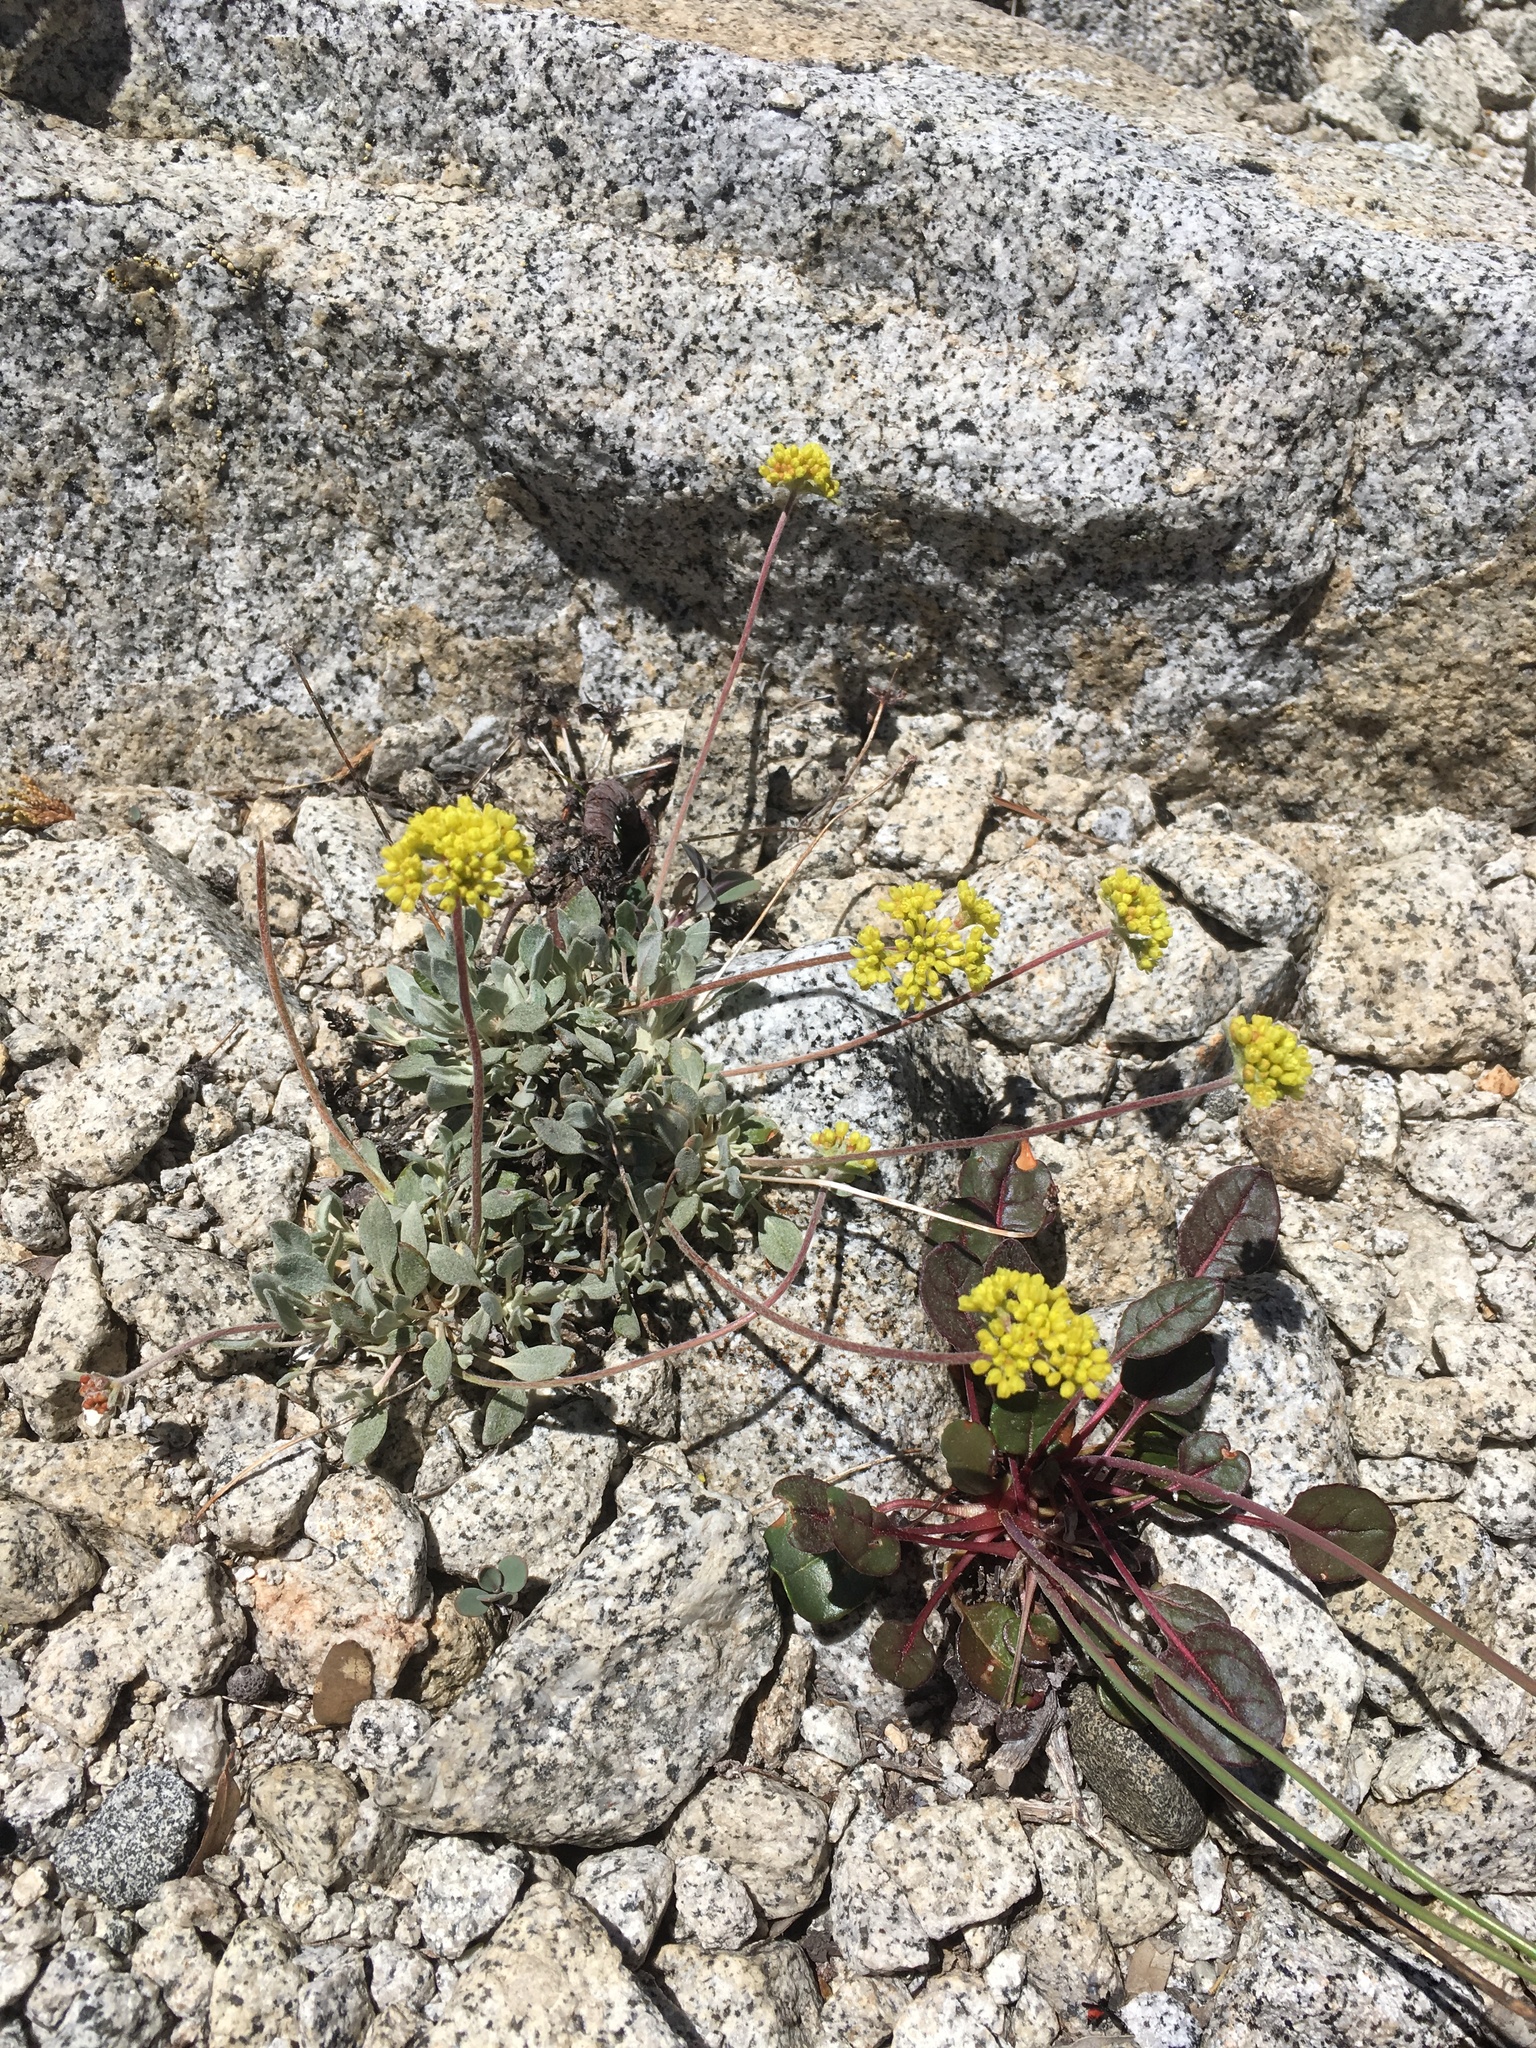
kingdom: Plantae
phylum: Tracheophyta
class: Magnoliopsida
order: Caryophyllales
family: Polygonaceae
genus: Eriogonum
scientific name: Eriogonum incanum
